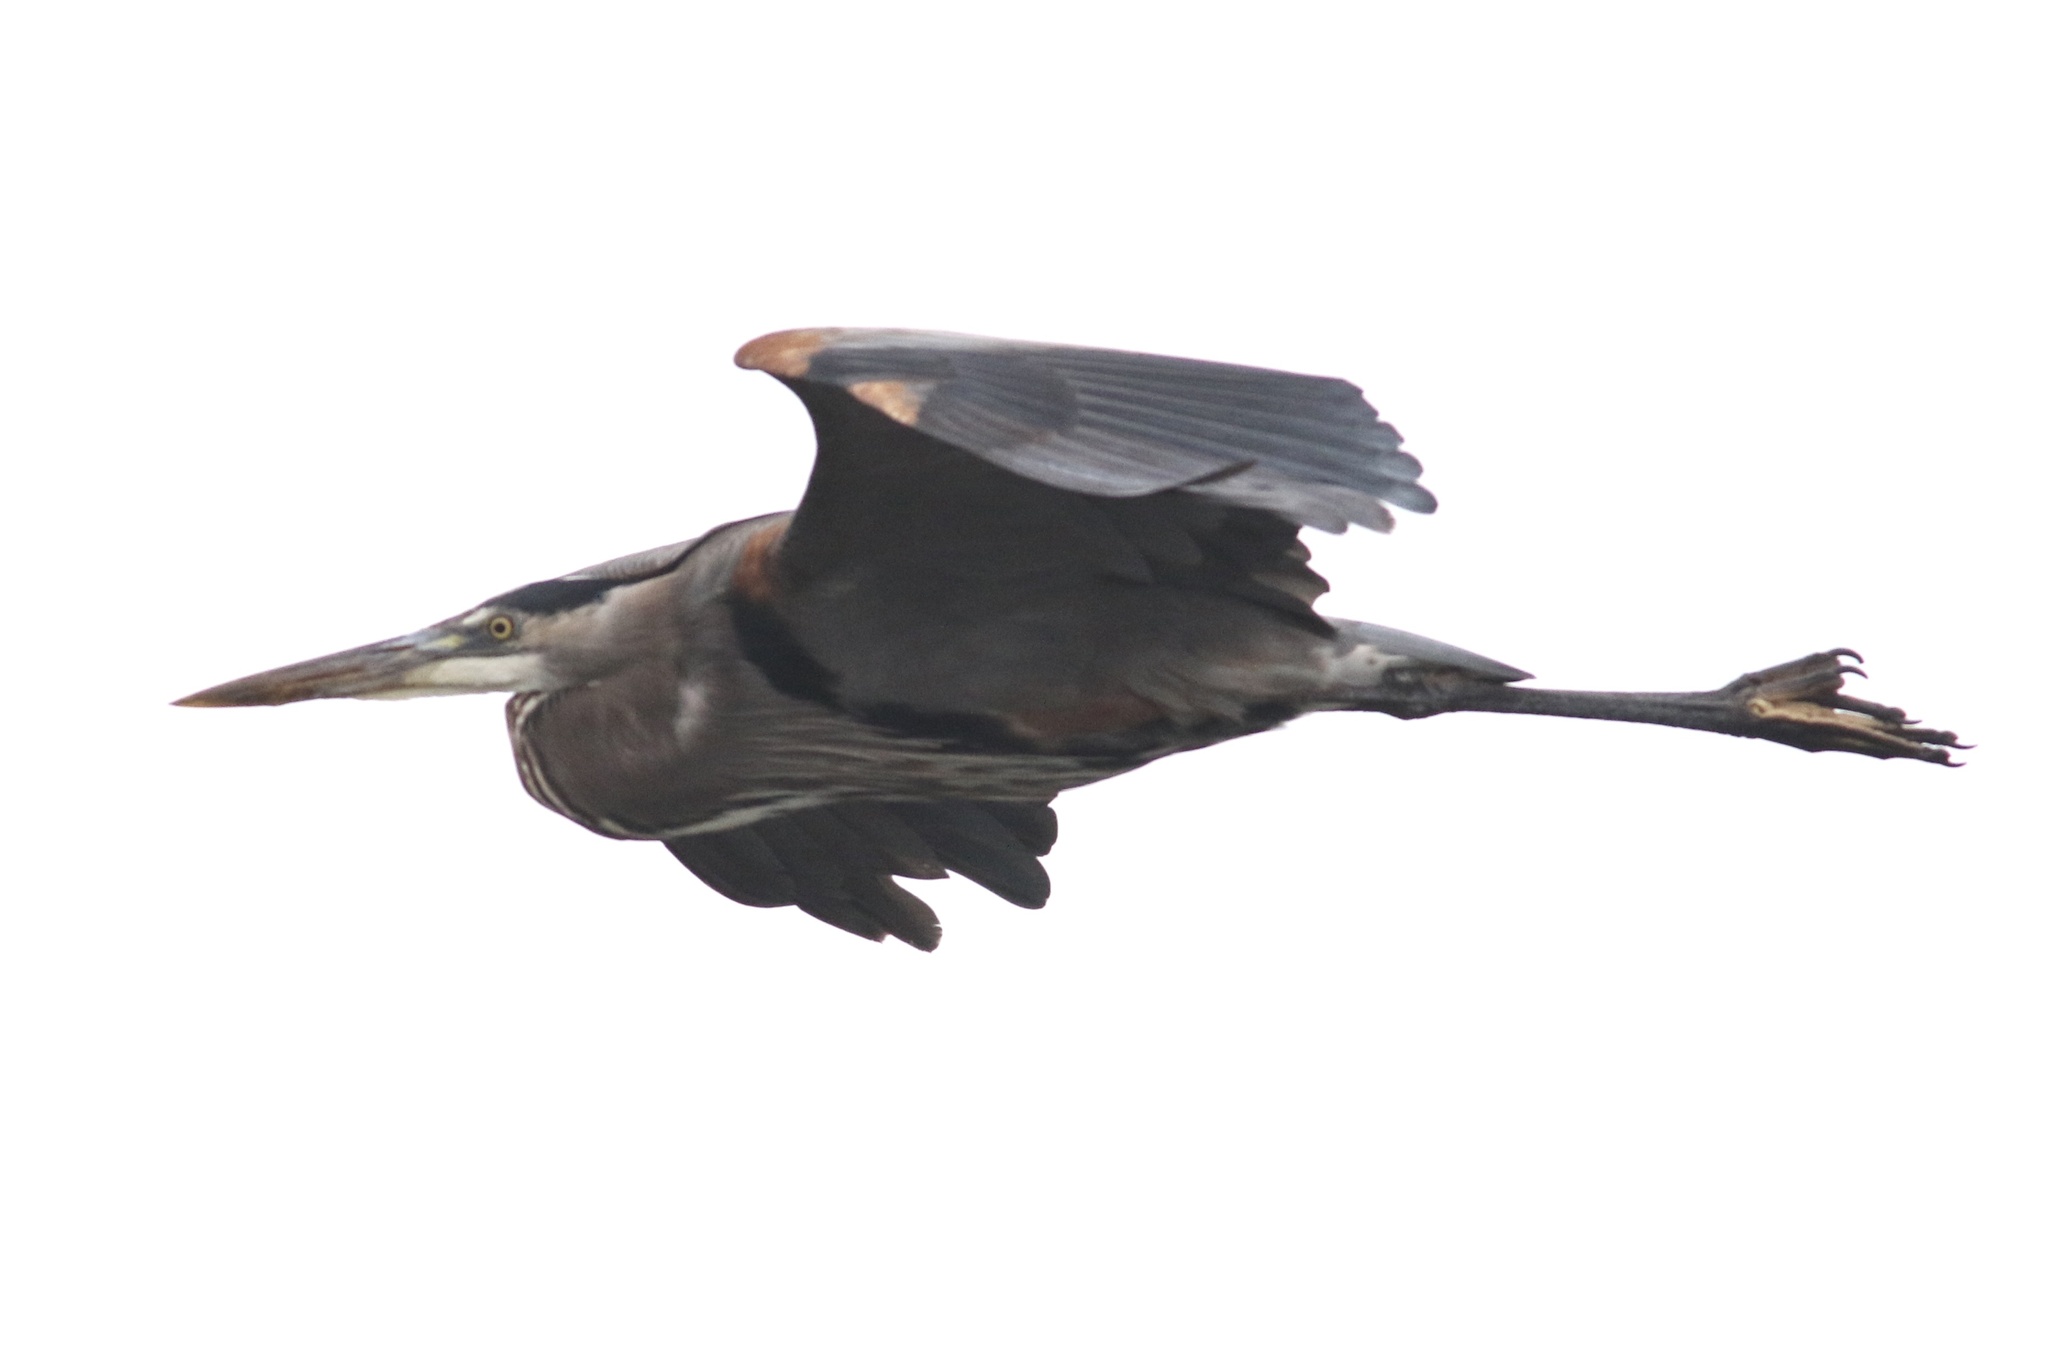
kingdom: Animalia
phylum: Chordata
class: Aves
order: Pelecaniformes
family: Ardeidae
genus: Ardea
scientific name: Ardea herodias
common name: Great blue heron
